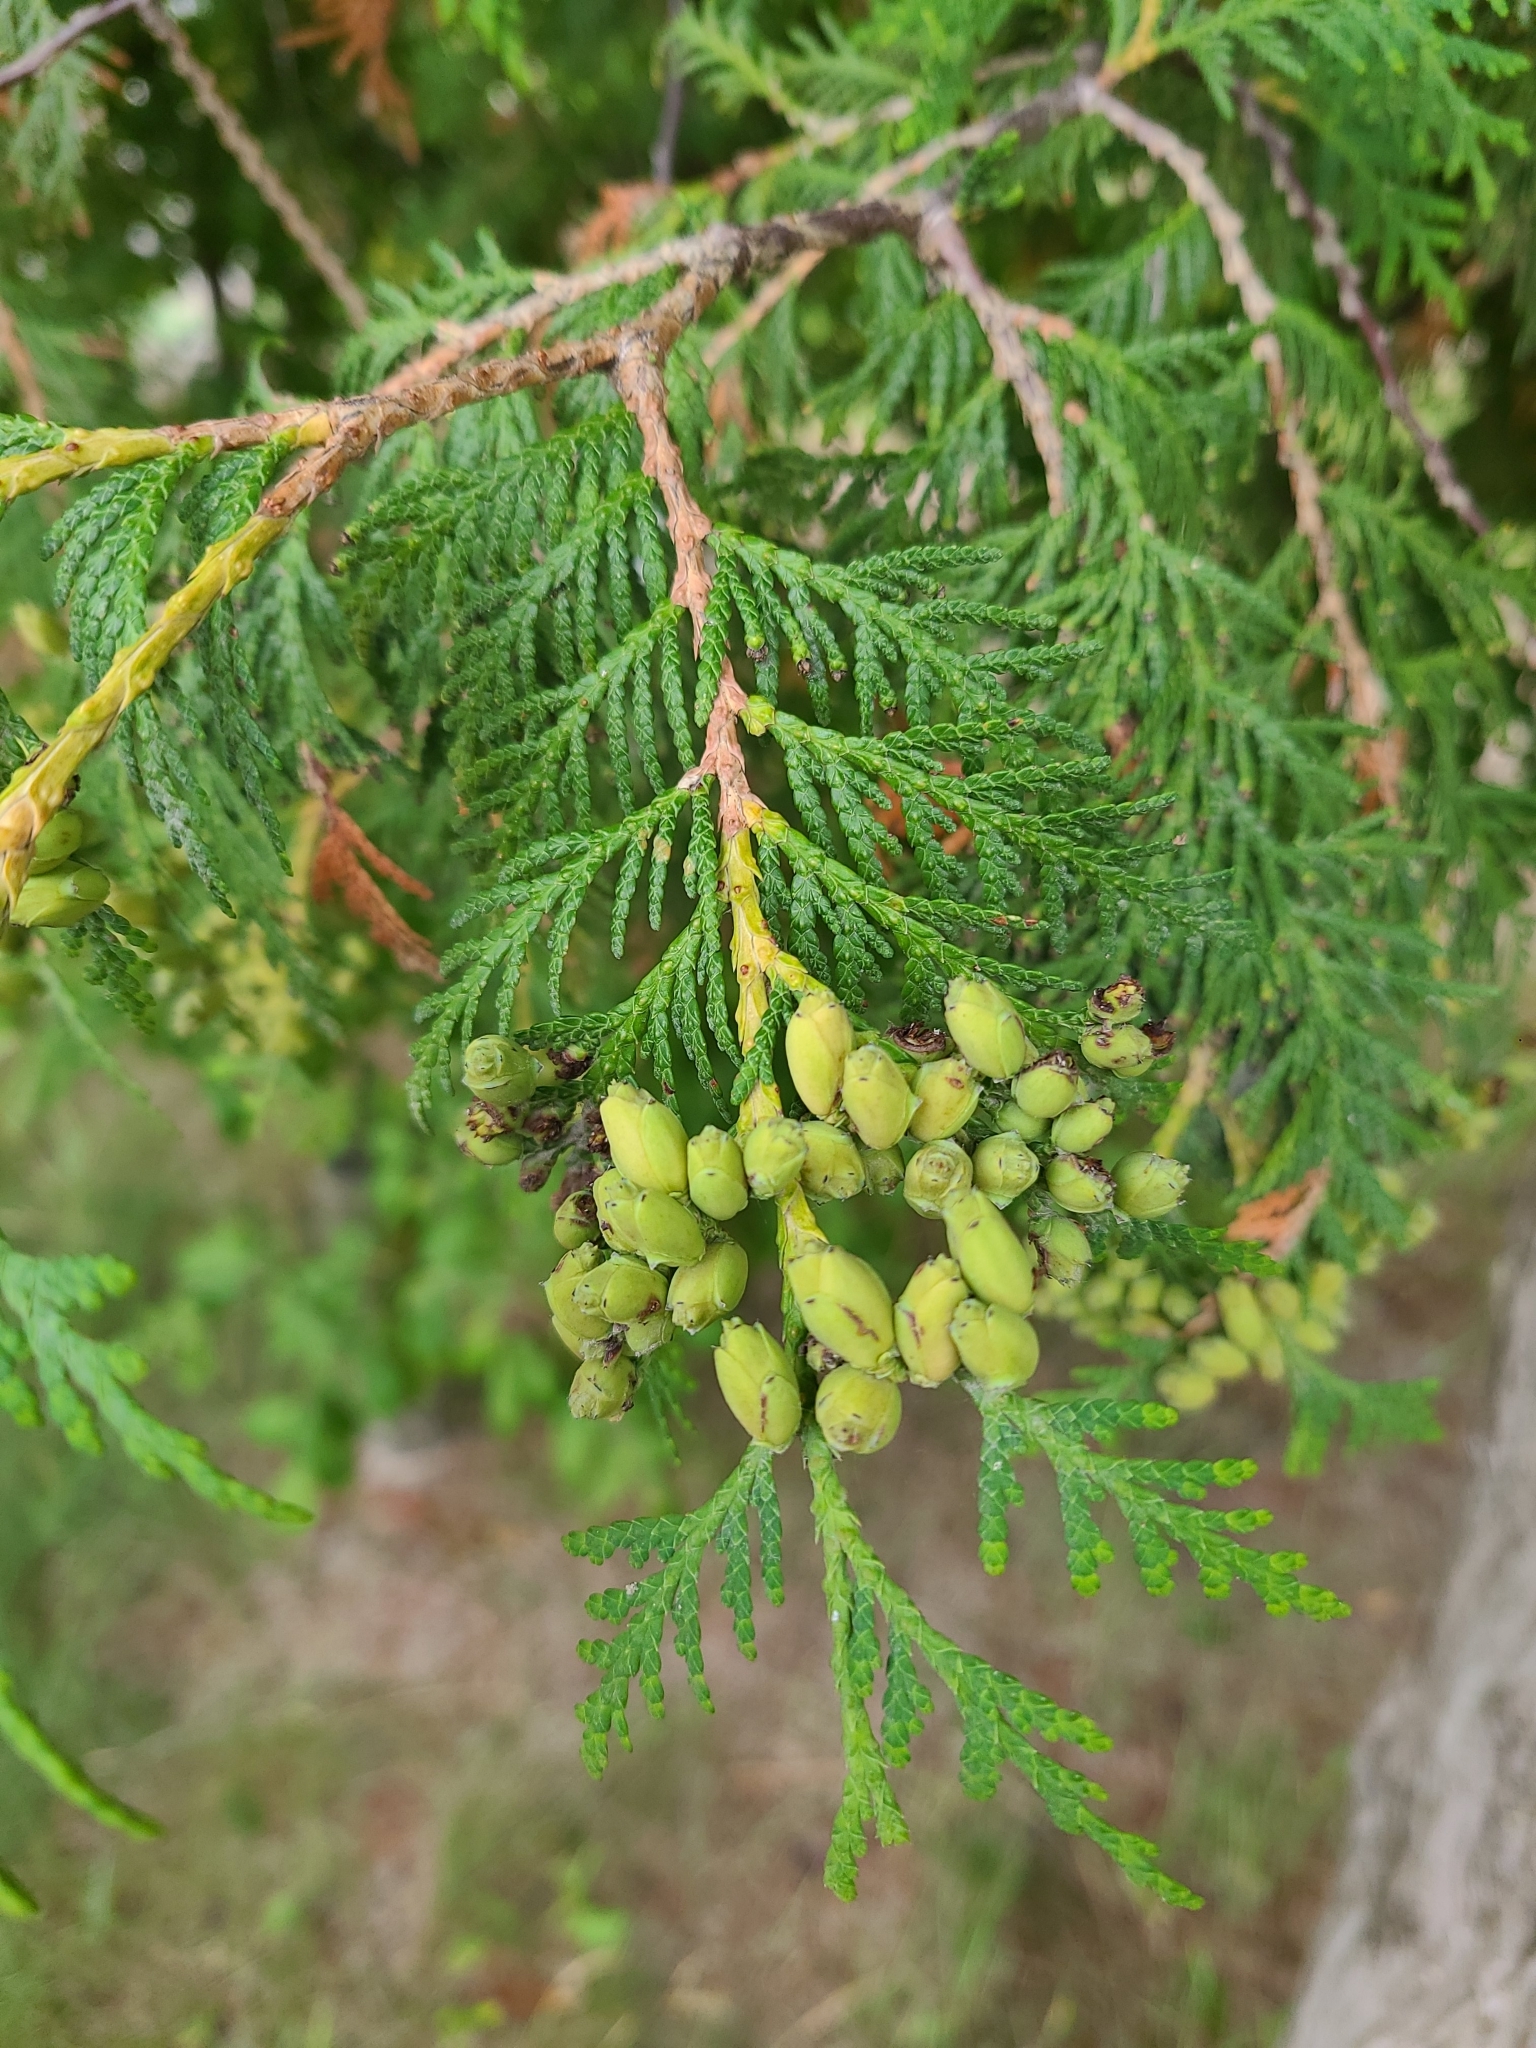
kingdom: Plantae
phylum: Tracheophyta
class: Pinopsida
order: Pinales
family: Cupressaceae
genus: Thuja
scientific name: Thuja occidentalis
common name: Northern white-cedar
